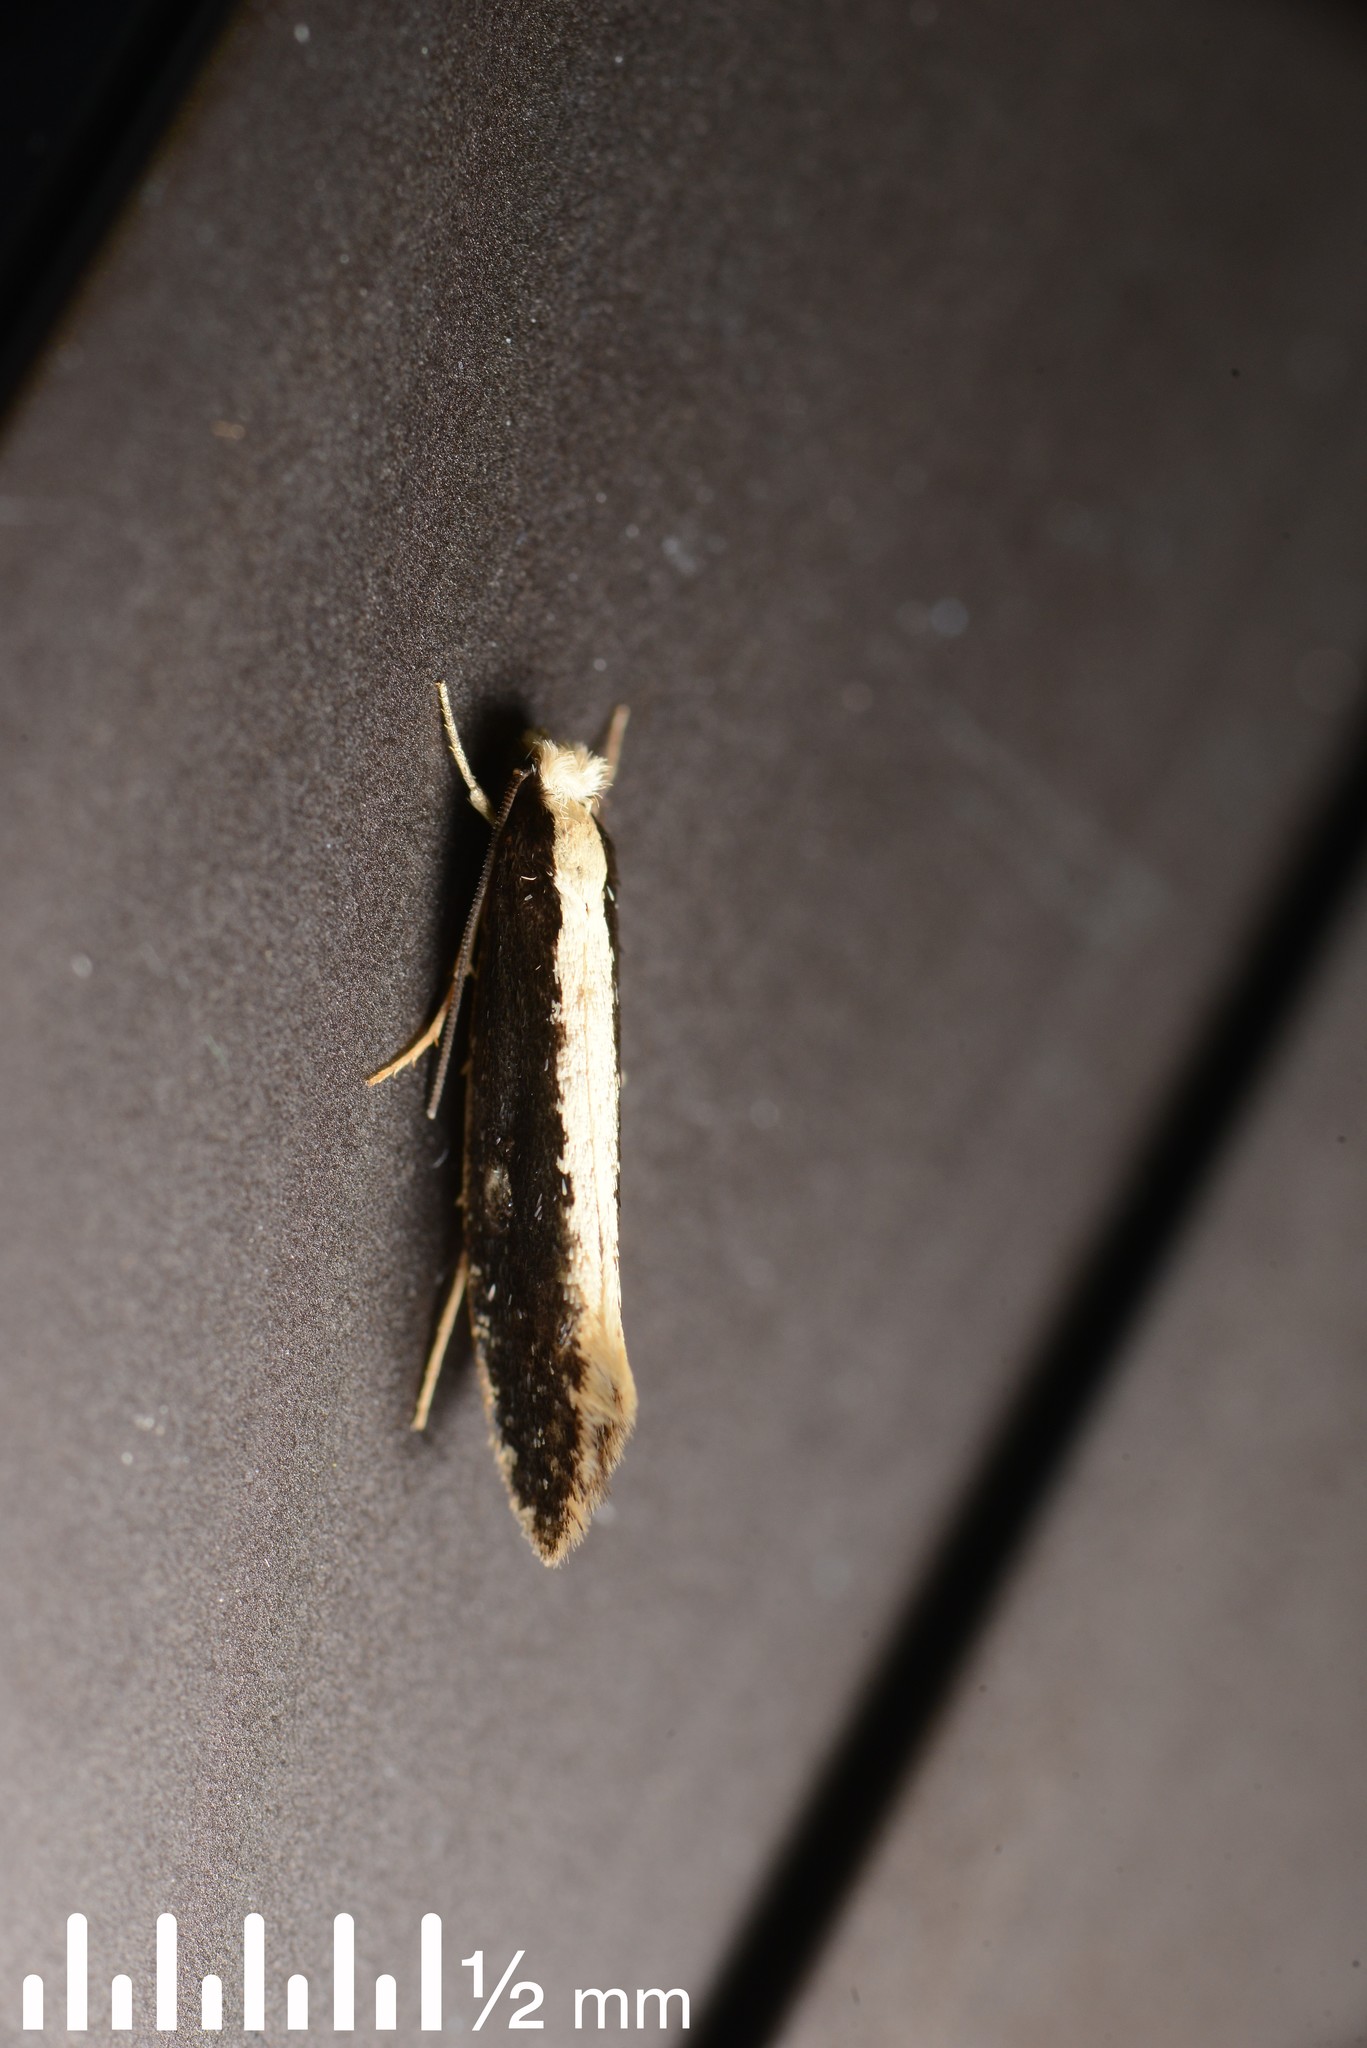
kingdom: Animalia
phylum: Arthropoda
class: Insecta
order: Lepidoptera
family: Tineidae
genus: Monopis
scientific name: Monopis ethelella
